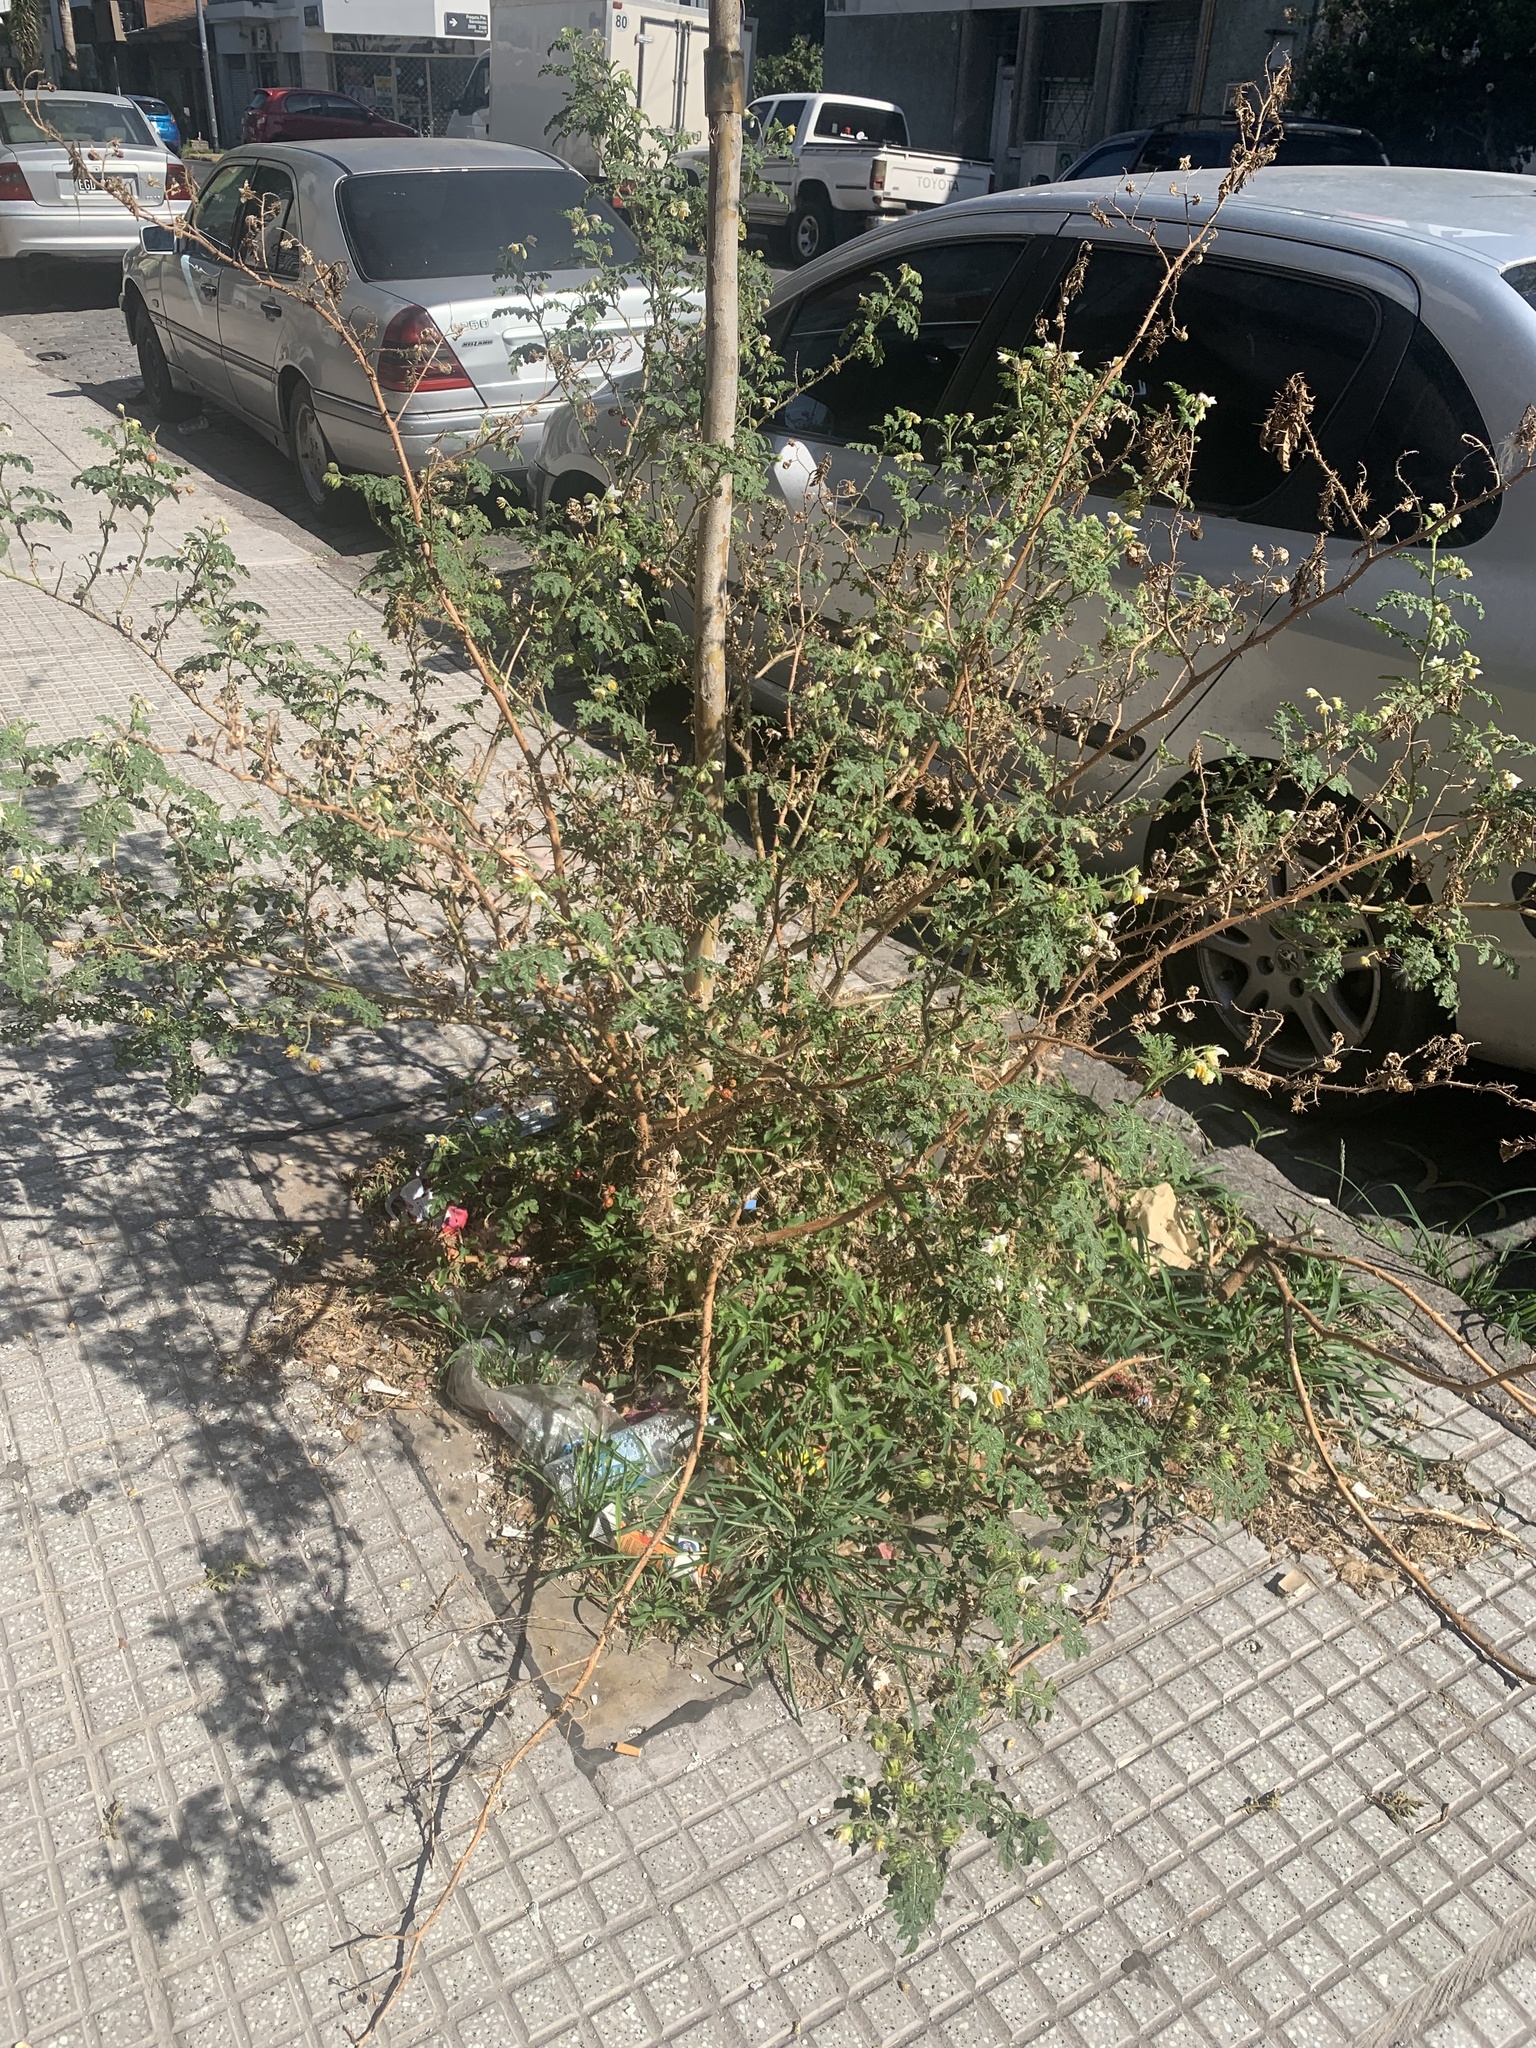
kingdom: Plantae
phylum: Tracheophyta
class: Magnoliopsida
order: Solanales
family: Solanaceae
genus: Solanum
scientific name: Solanum sisymbriifolium
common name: Red buffalo-bur
